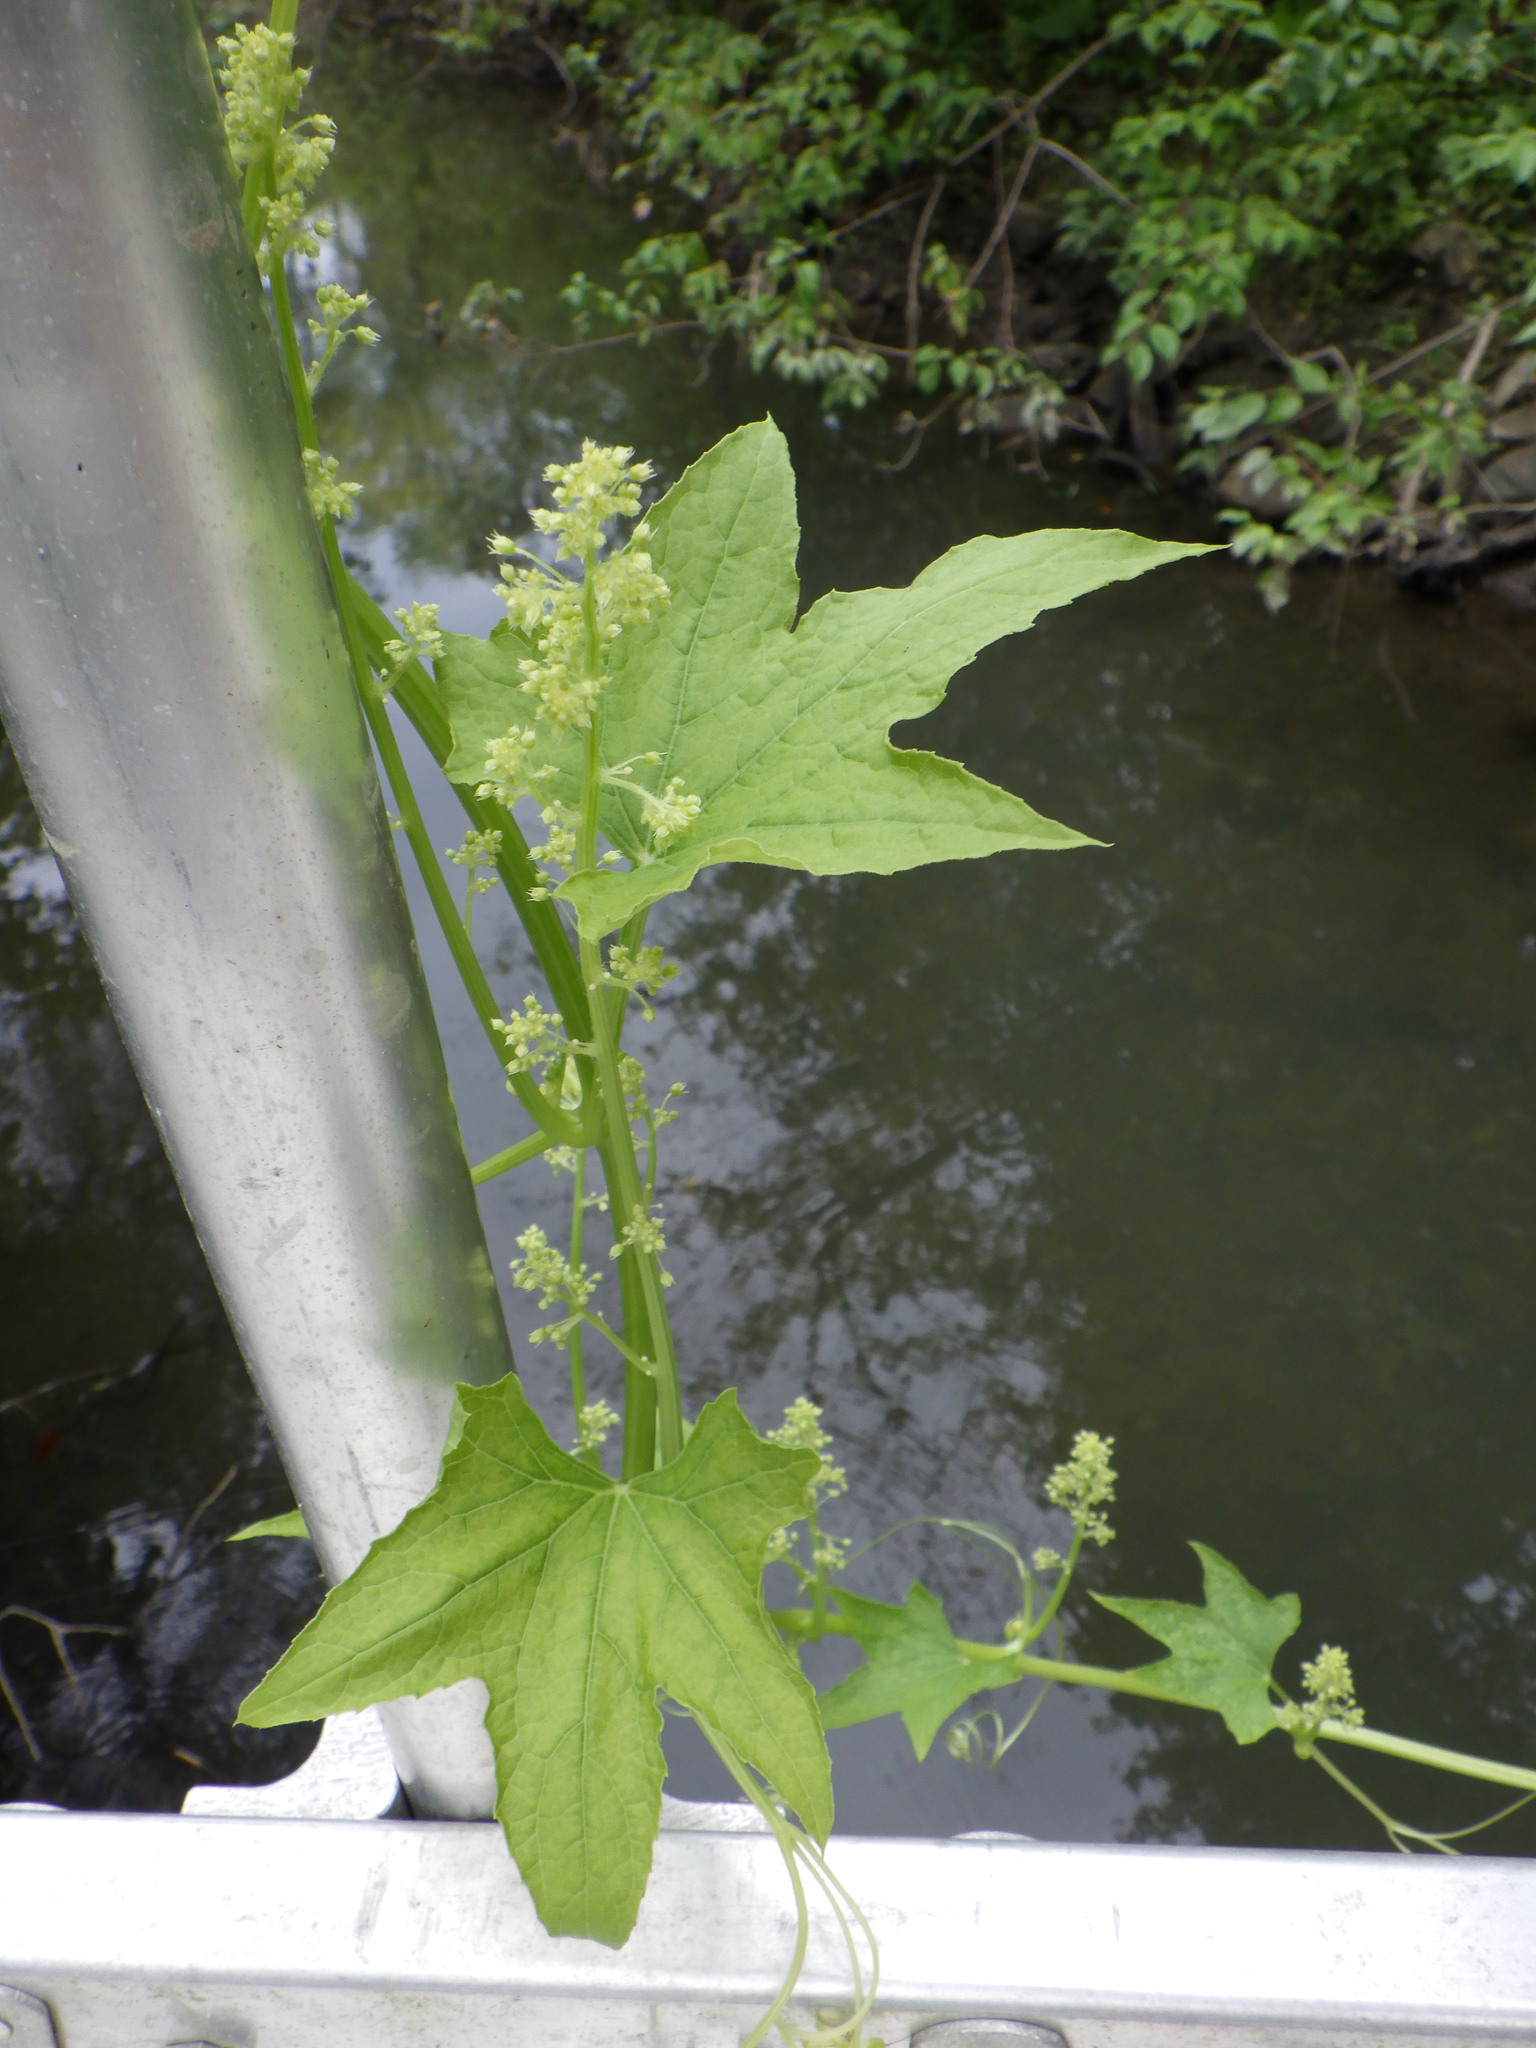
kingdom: Plantae
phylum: Tracheophyta
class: Magnoliopsida
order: Cucurbitales
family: Cucurbitaceae
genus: Echinocystis
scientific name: Echinocystis lobata
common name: Wild cucumber
